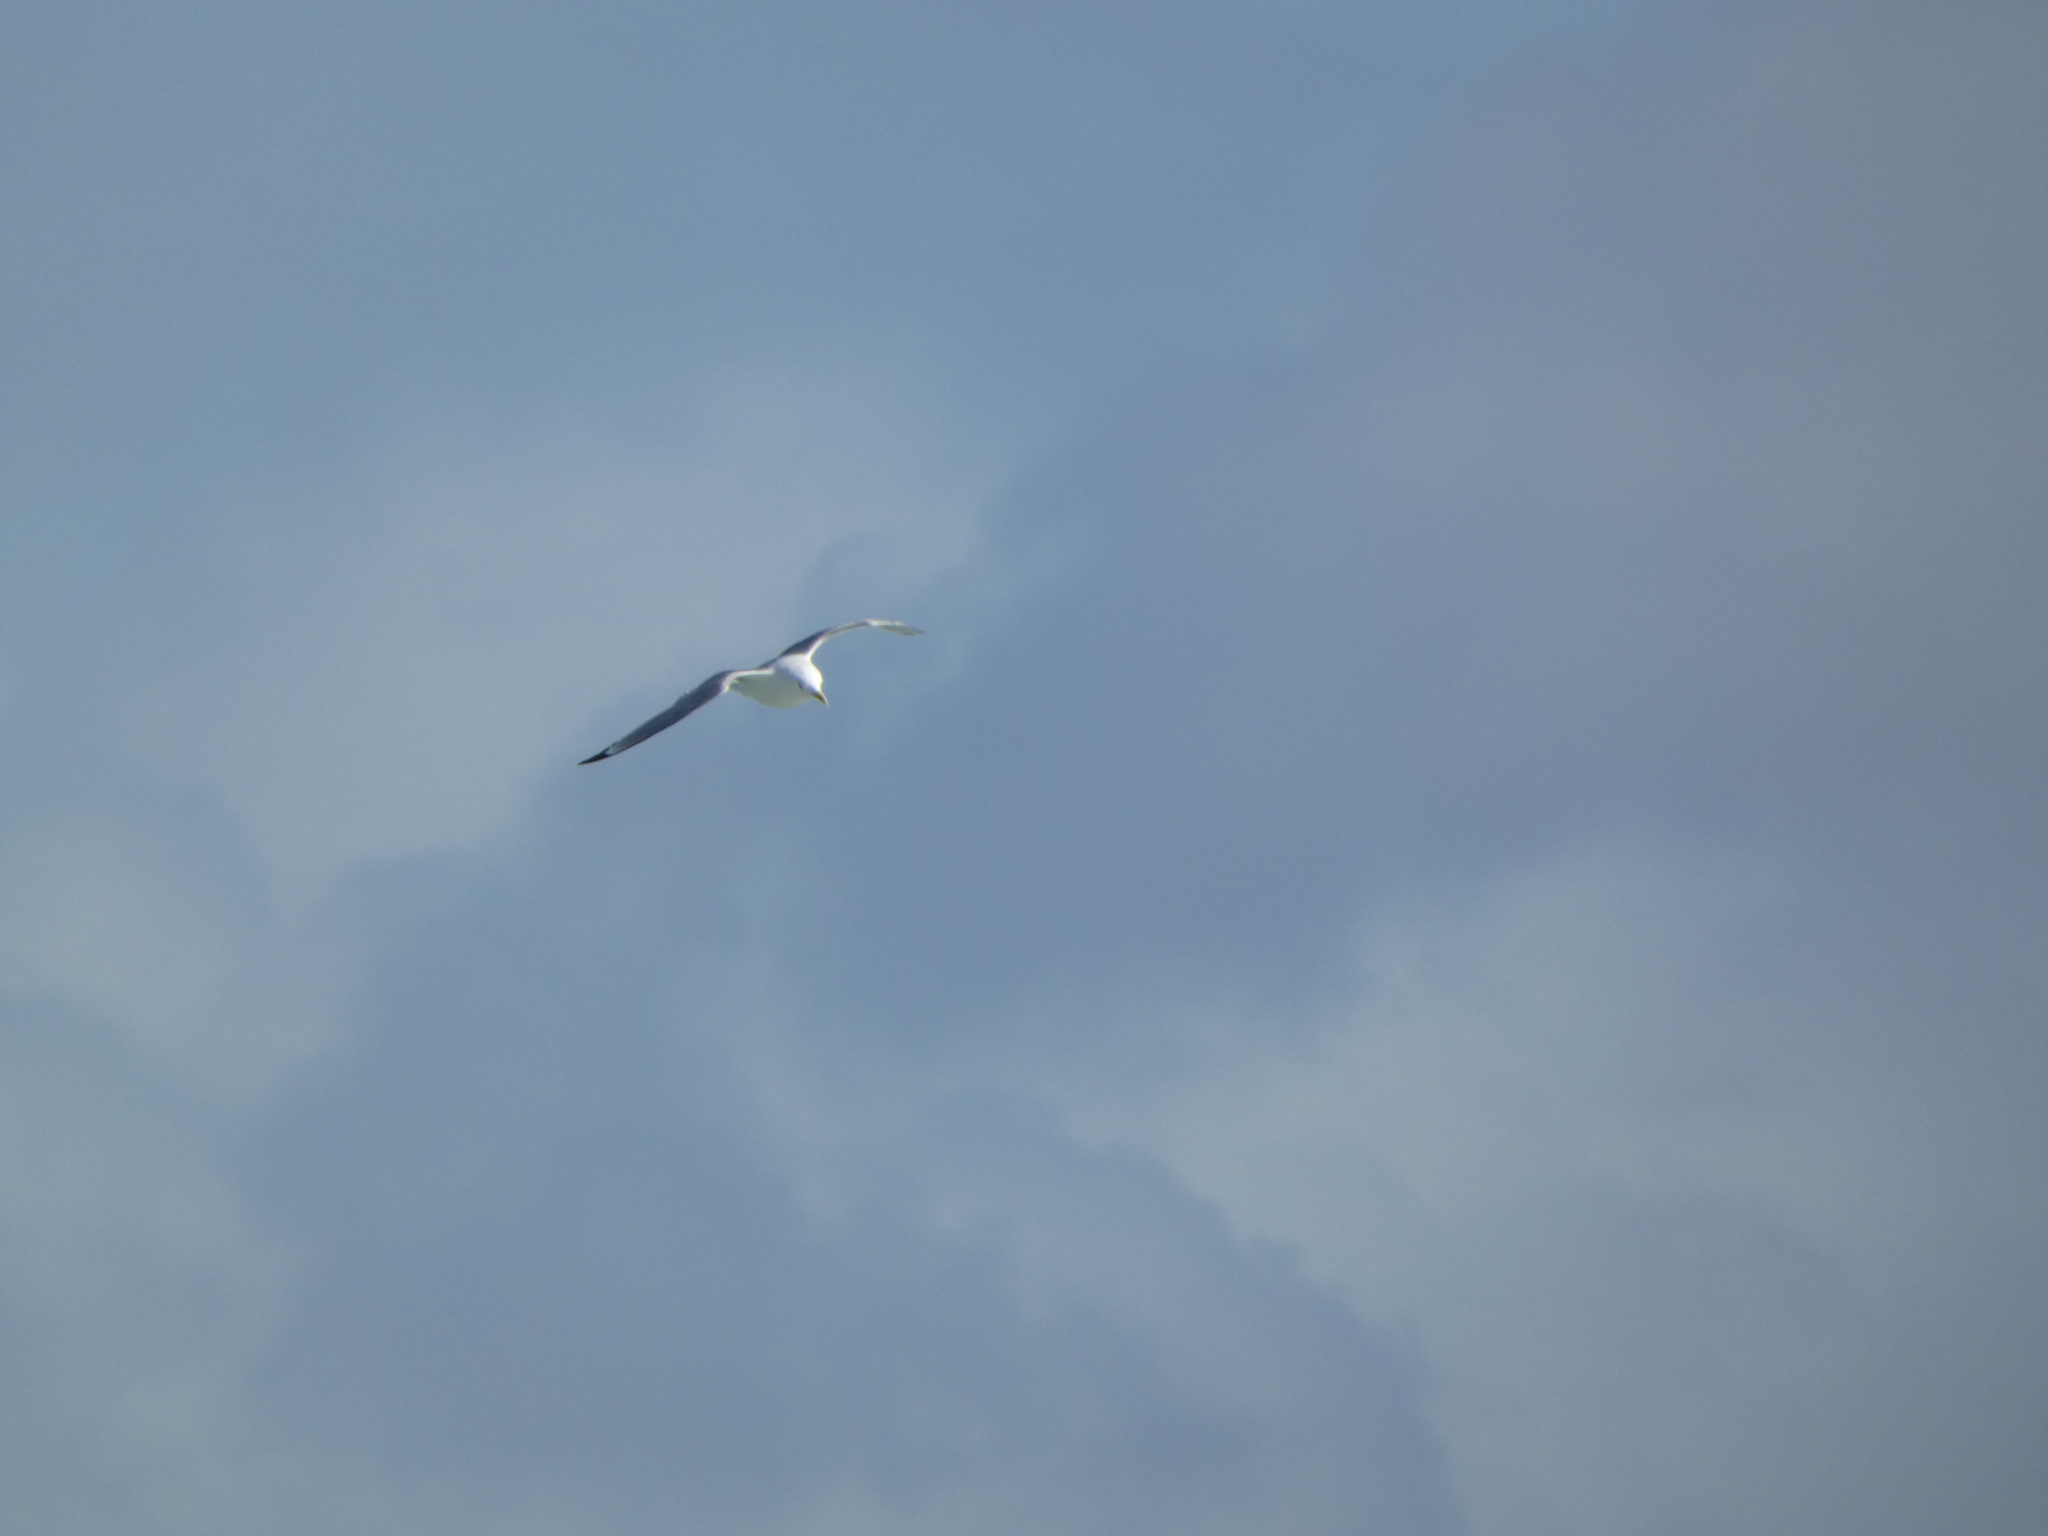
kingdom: Animalia
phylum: Chordata
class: Aves
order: Charadriiformes
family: Laridae
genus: Rissa
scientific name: Rissa tridactyla
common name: Black-legged kittiwake
